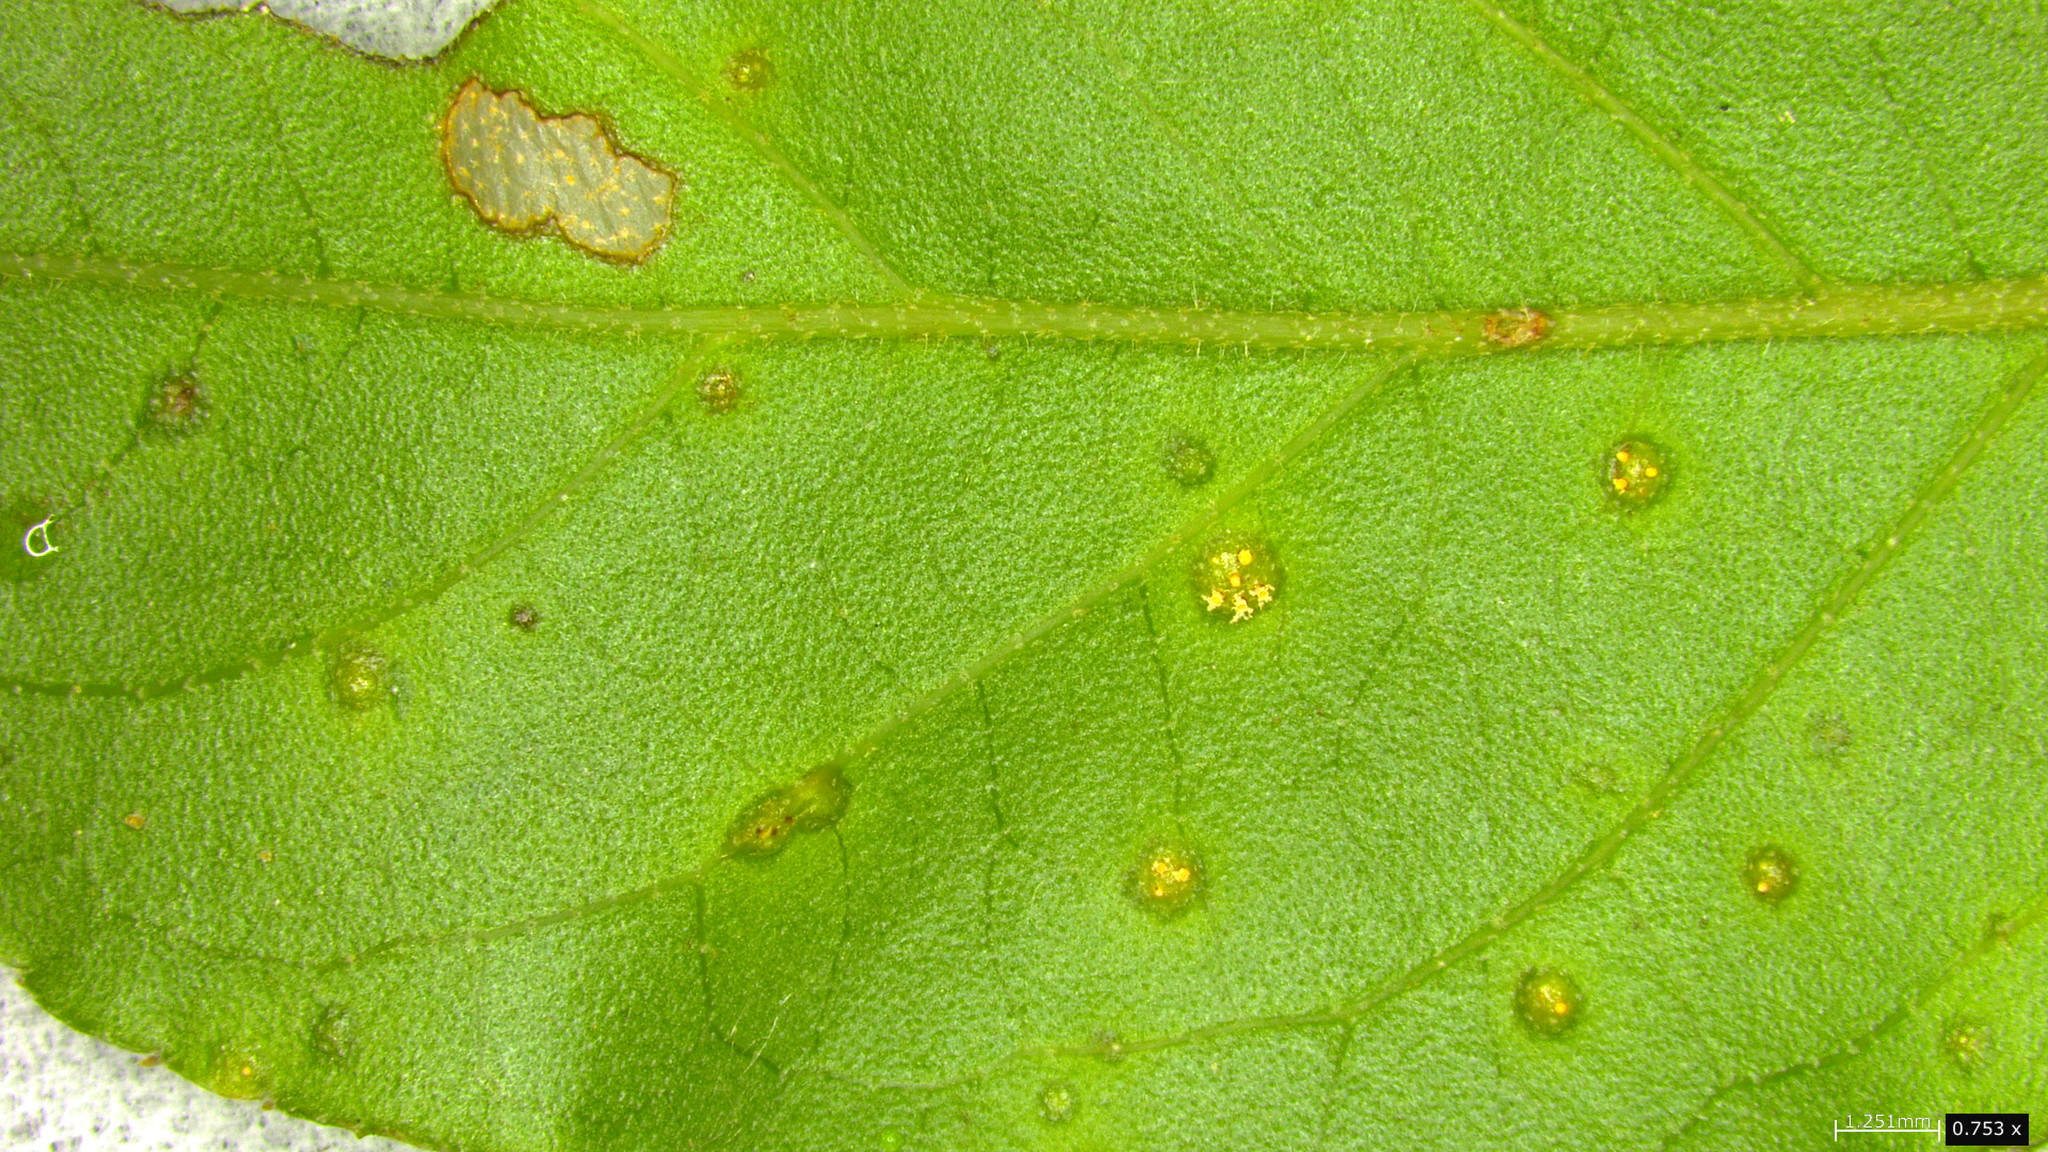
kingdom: Fungi
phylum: Basidiomycota
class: Pucciniomycetes
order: Pucciniales
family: Pucciniaceae
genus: Puccinia
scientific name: Puccinia kusanoi
